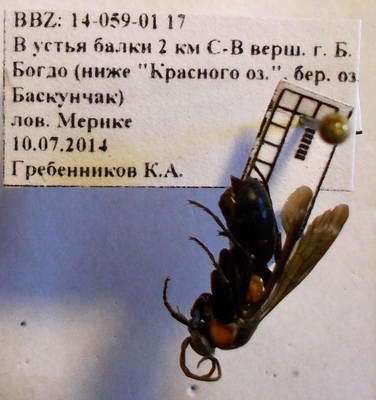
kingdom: Animalia
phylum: Arthropoda
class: Insecta
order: Hymenoptera
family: Pompilidae
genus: Eoferreola
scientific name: Eoferreola manticata
